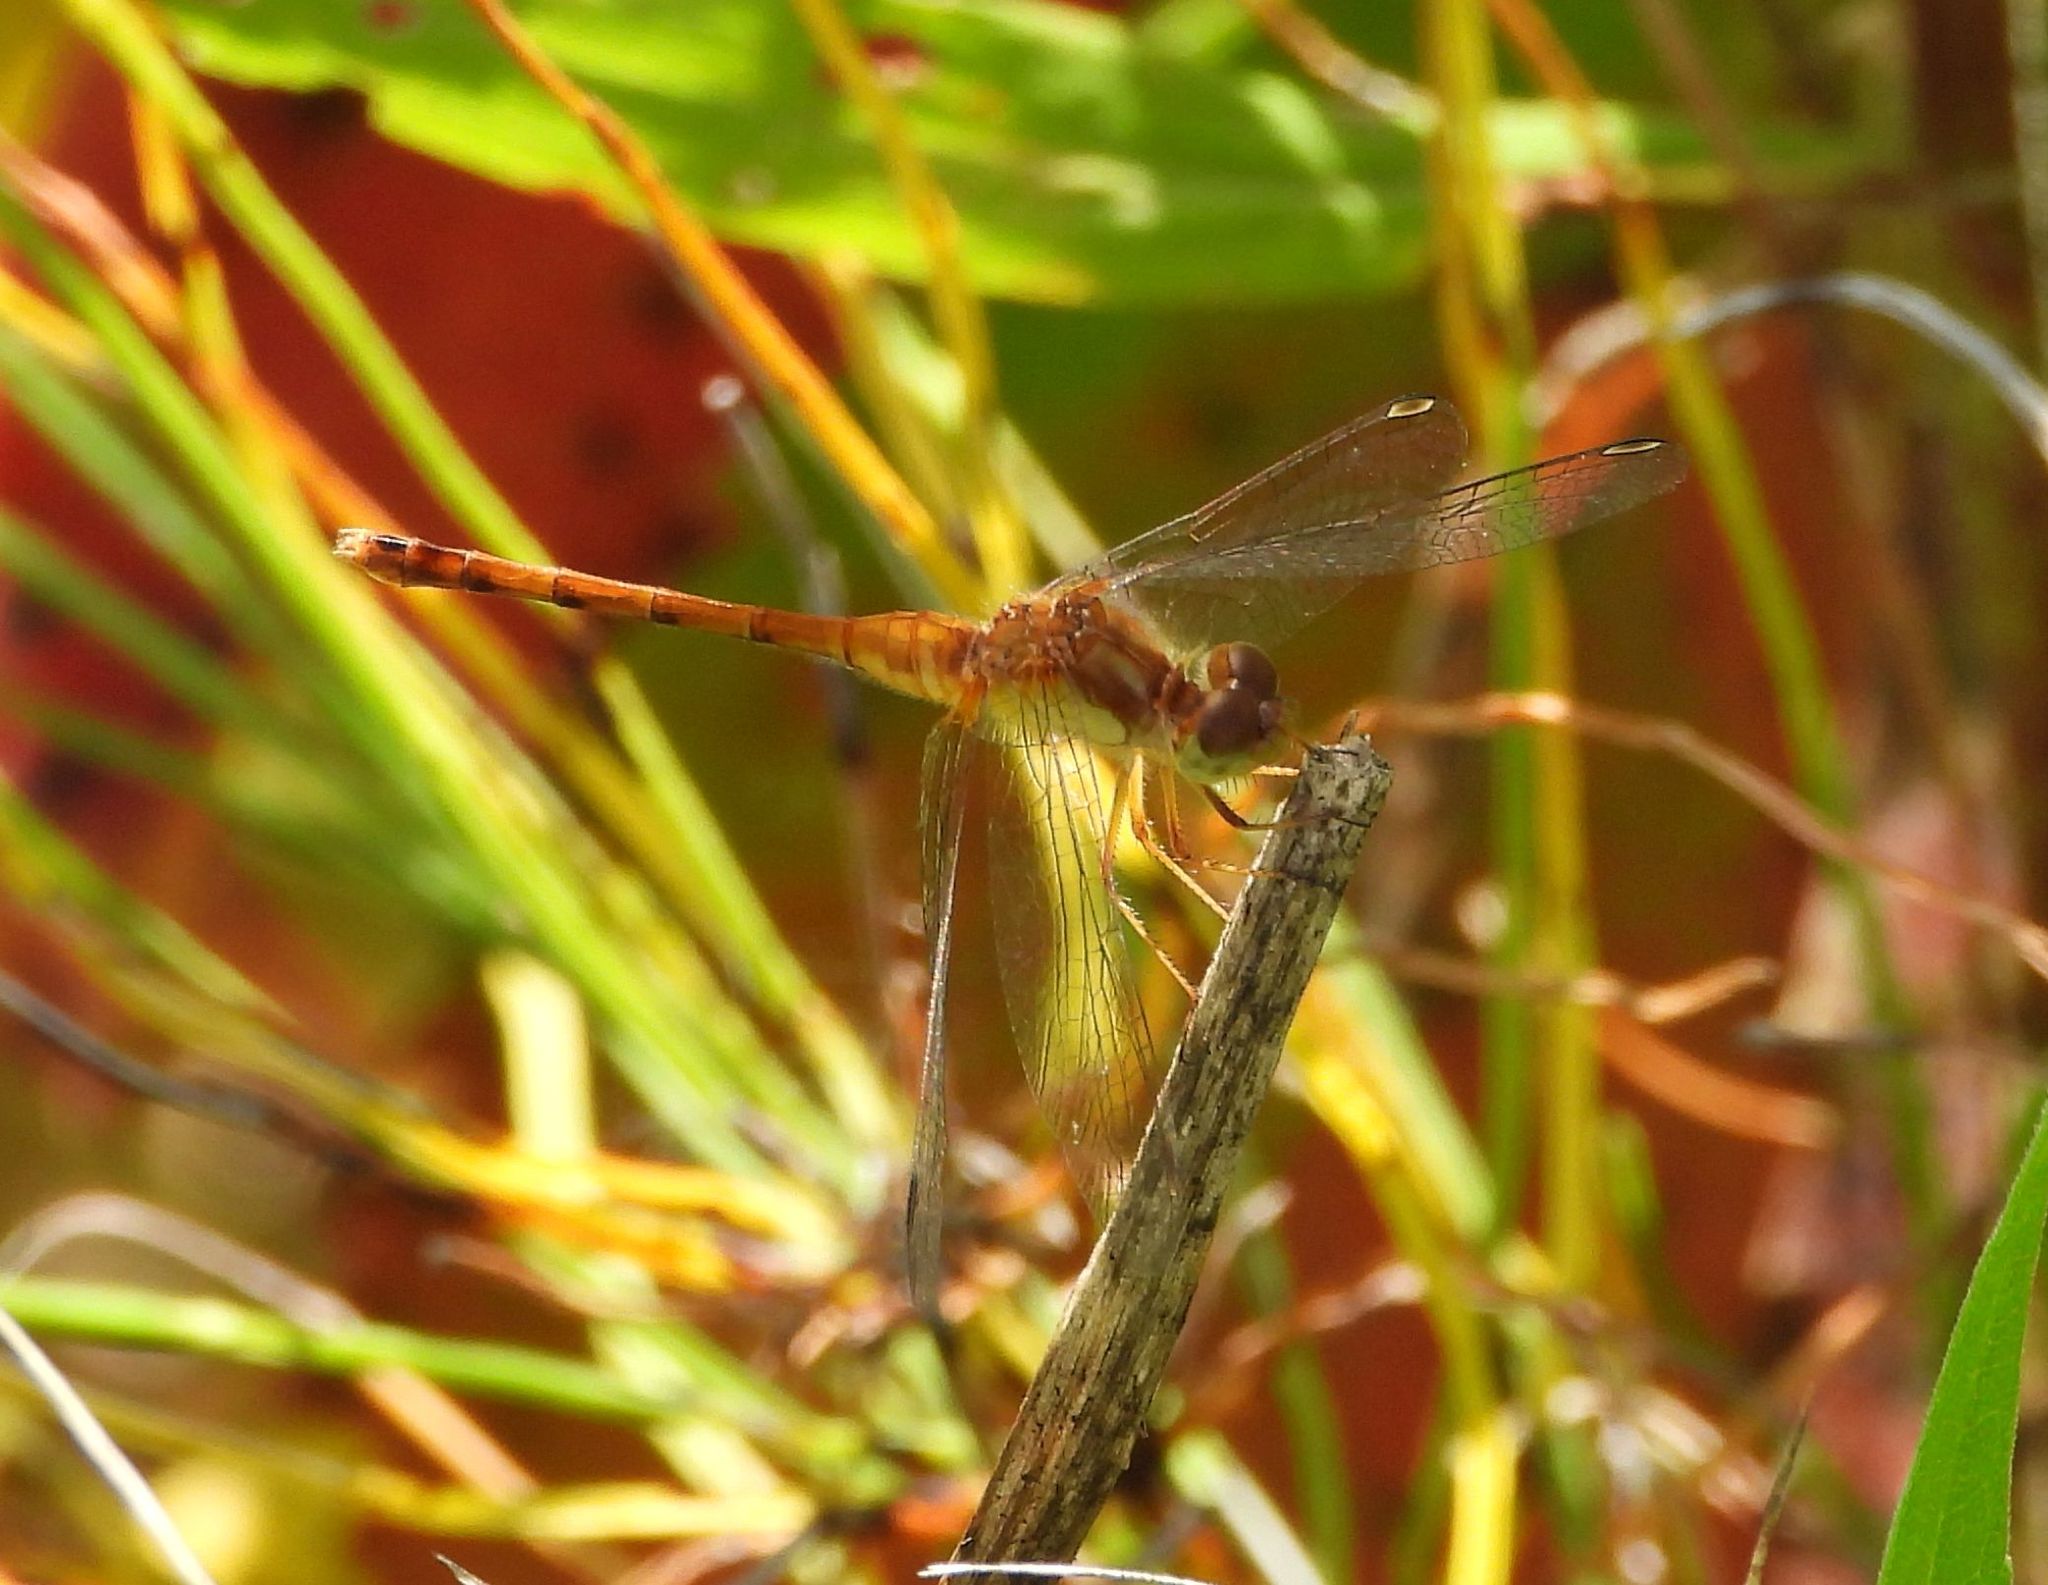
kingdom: Animalia
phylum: Arthropoda
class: Insecta
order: Odonata
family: Libellulidae
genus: Sympetrum
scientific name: Sympetrum vicinum
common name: Autumn meadowhawk
